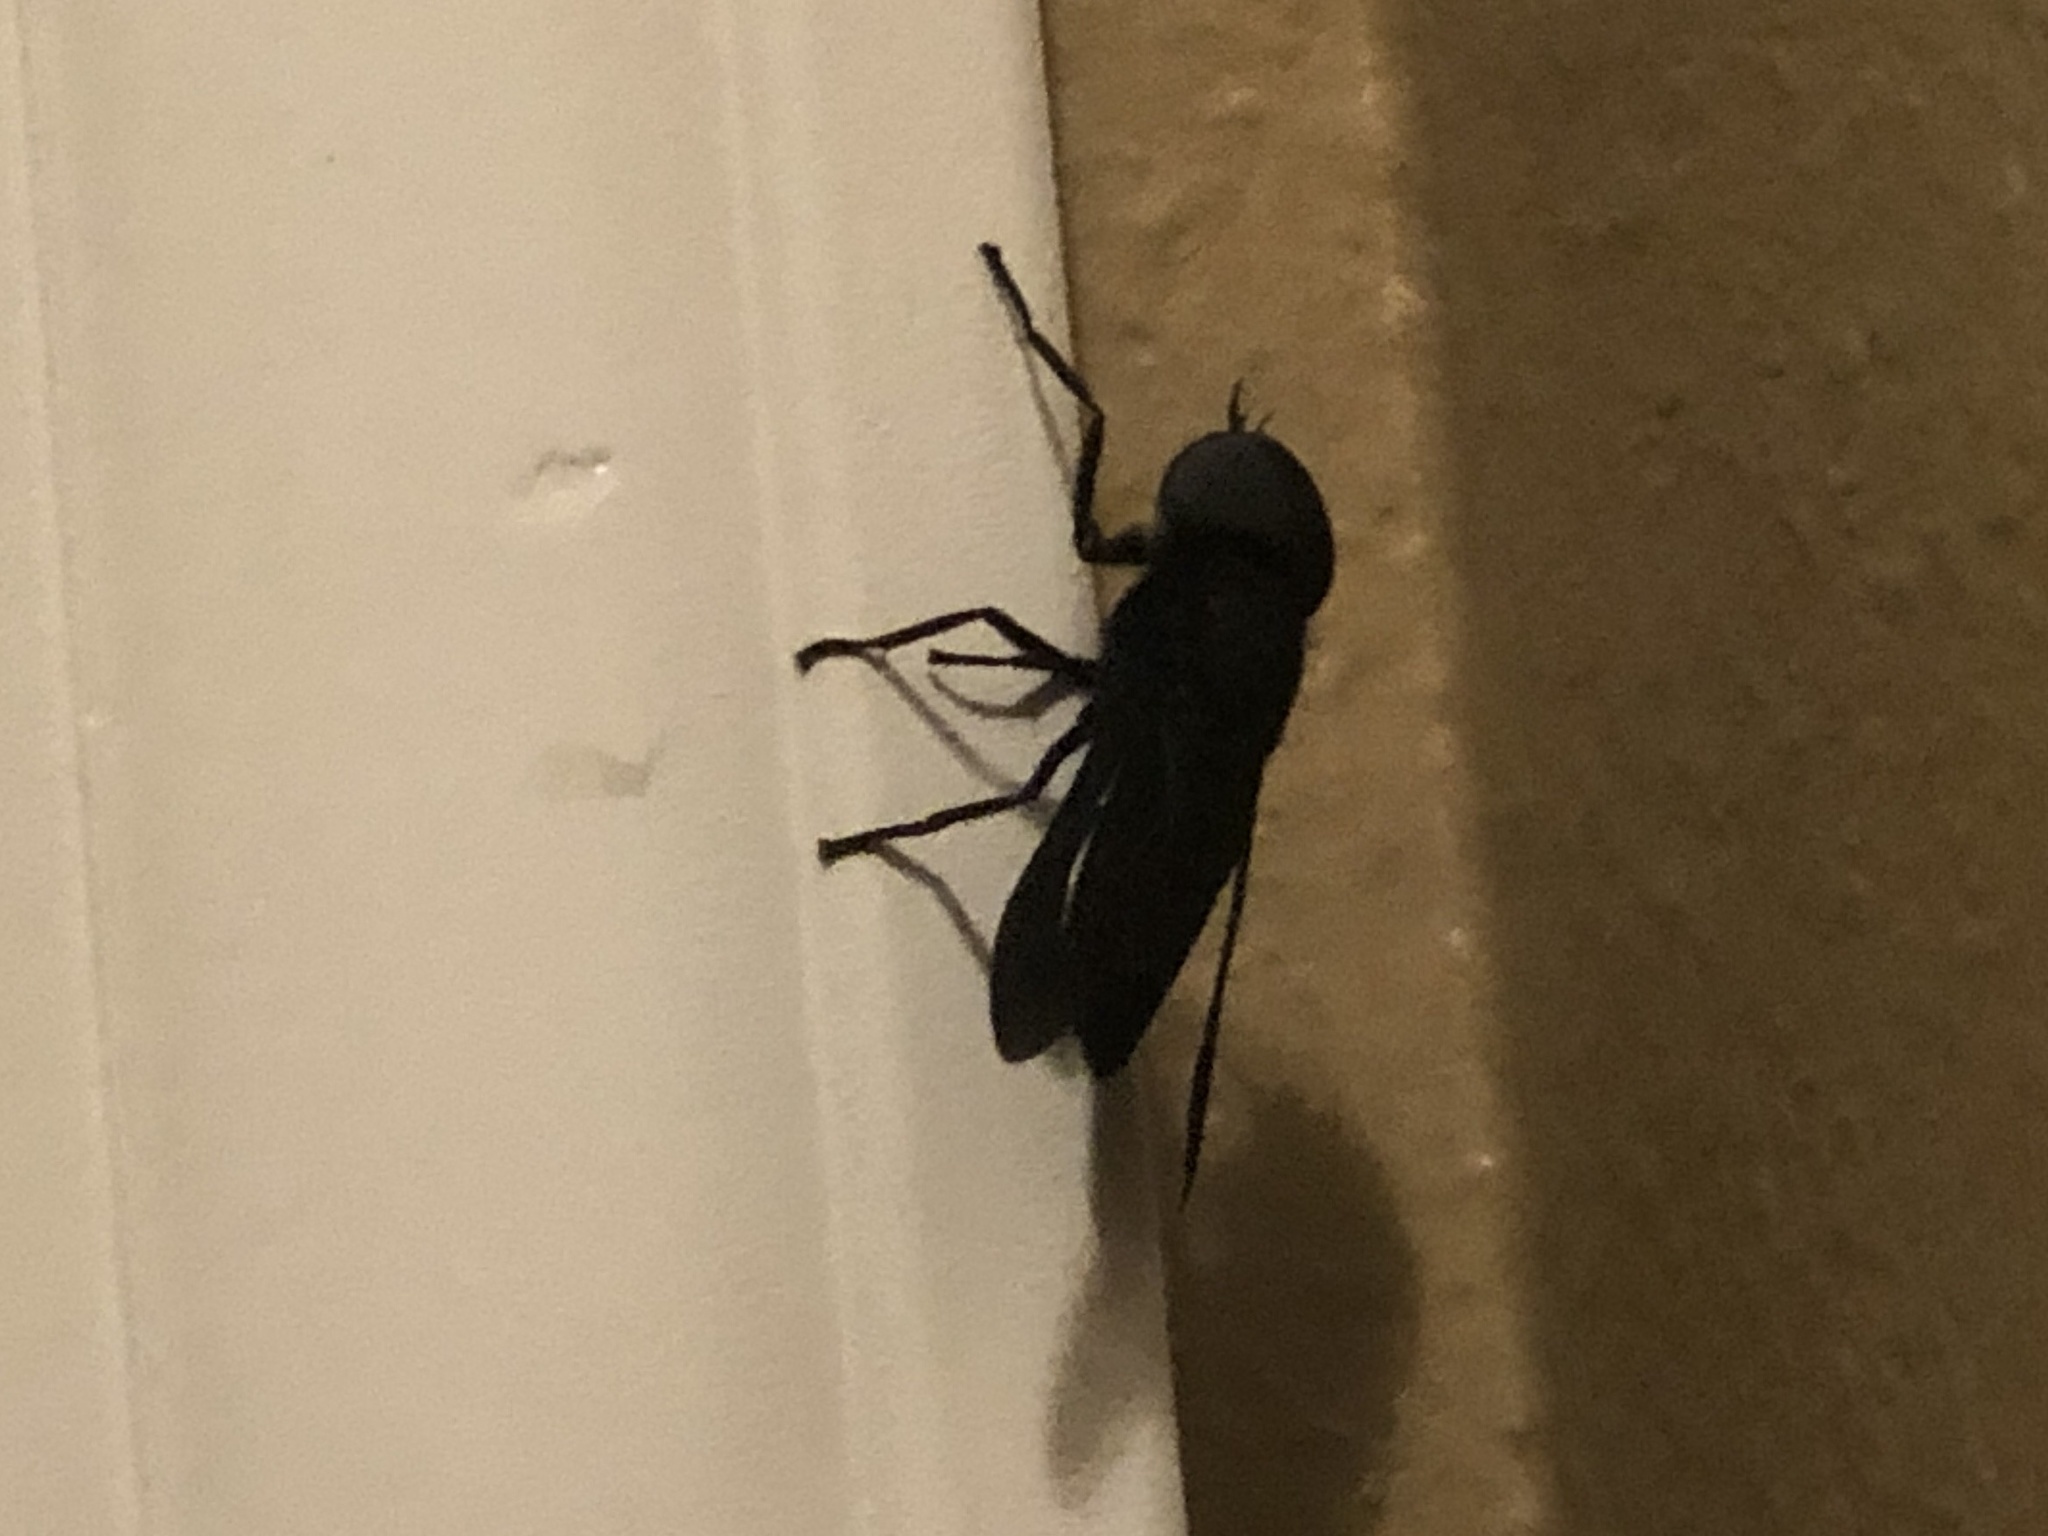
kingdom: Animalia
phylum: Arthropoda
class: Insecta
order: Diptera
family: Tabanidae
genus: Tabanus
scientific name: Tabanus atratus
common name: Black horse fly
